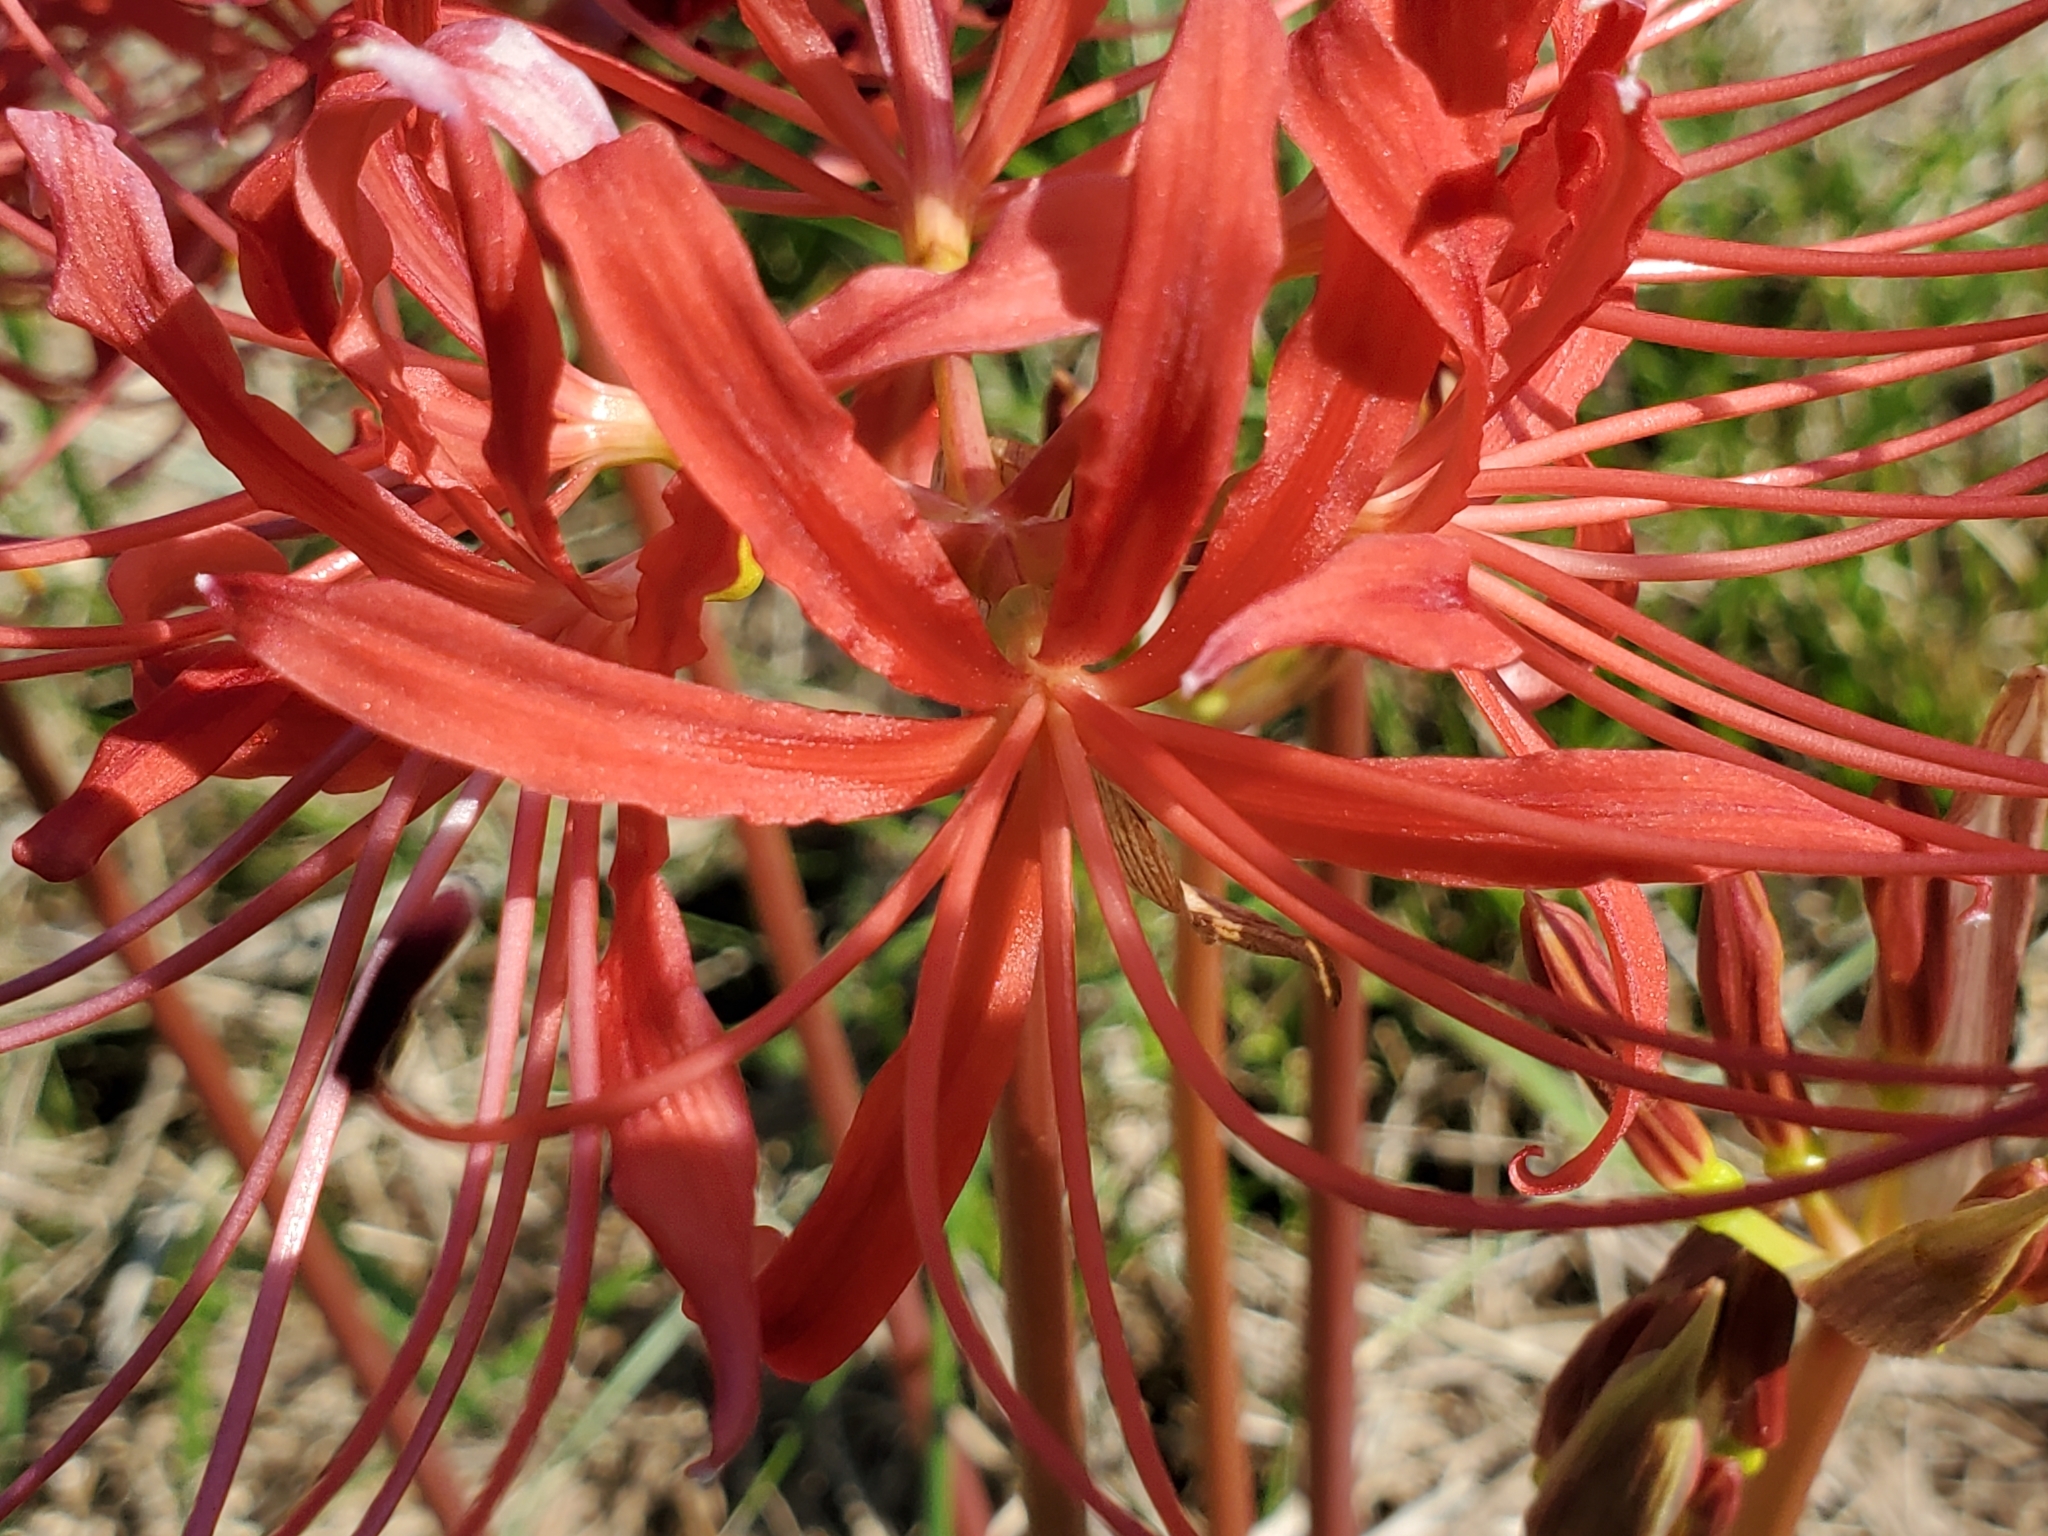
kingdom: Plantae
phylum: Tracheophyta
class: Liliopsida
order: Asparagales
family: Amaryllidaceae
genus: Lycoris
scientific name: Lycoris radiata
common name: Red spider lily
